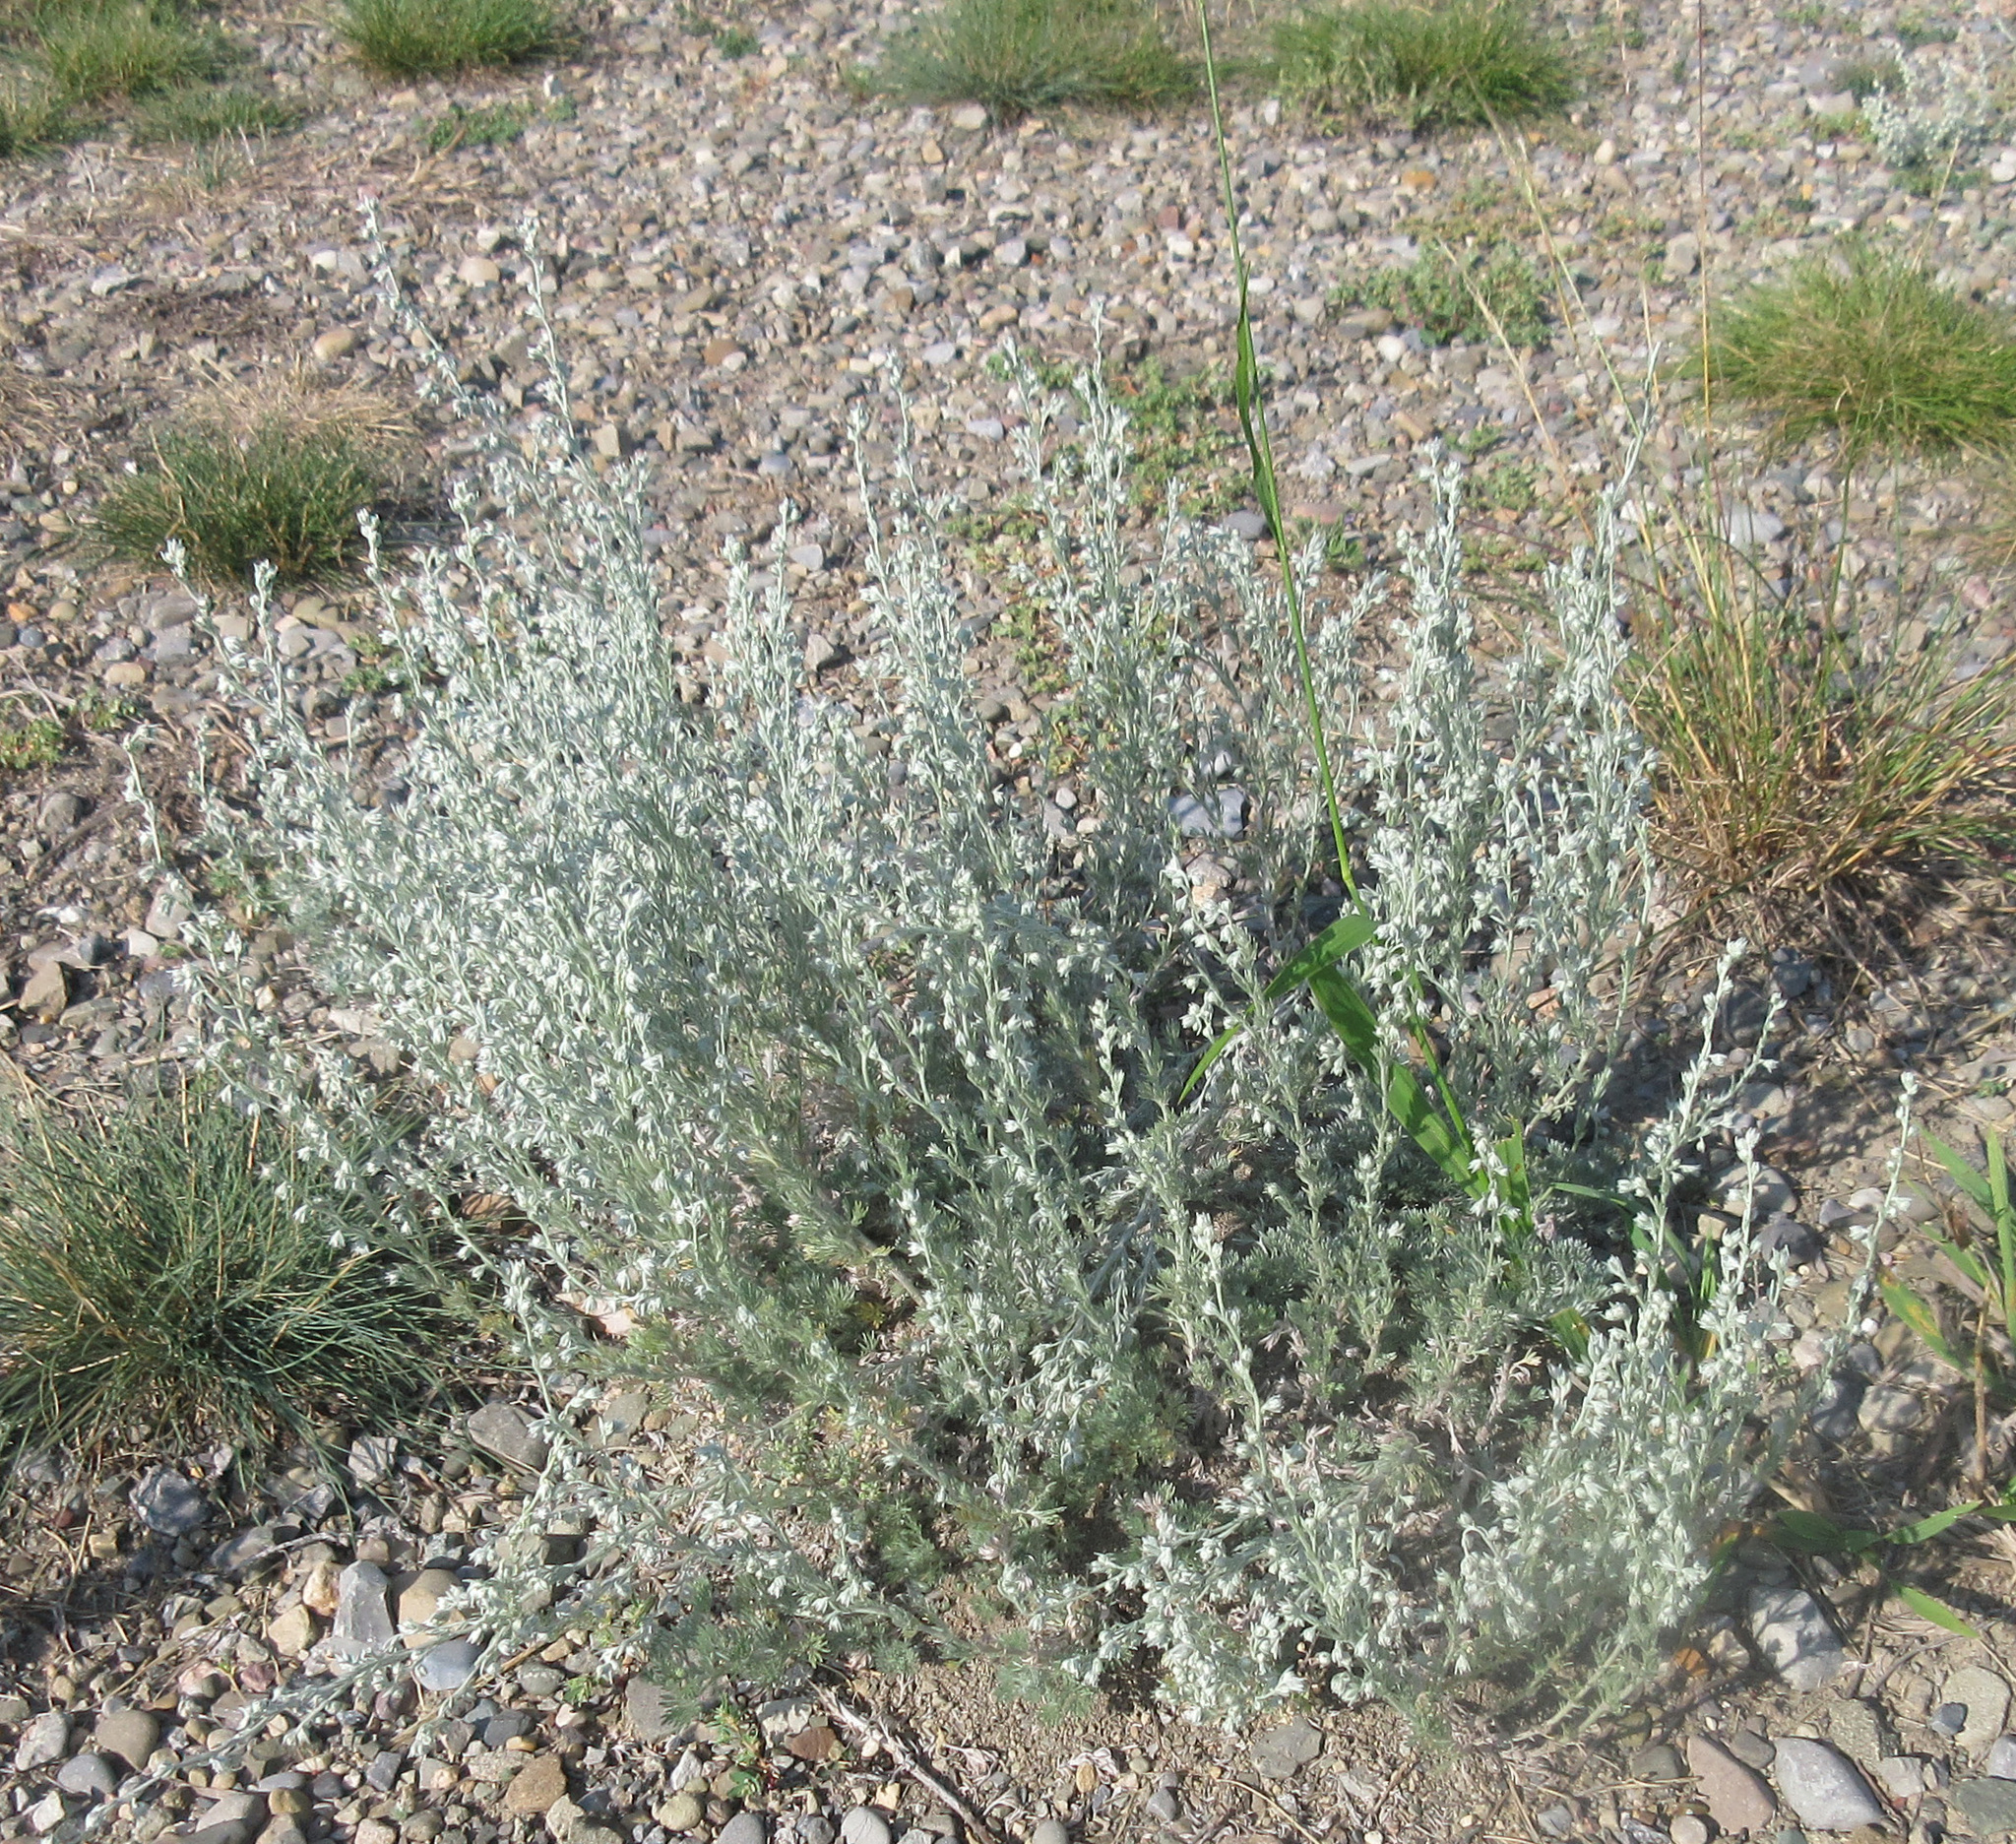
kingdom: Plantae
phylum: Tracheophyta
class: Magnoliopsida
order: Asterales
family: Asteraceae
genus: Artemisia
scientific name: Artemisia frigida
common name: Prairie sagewort
